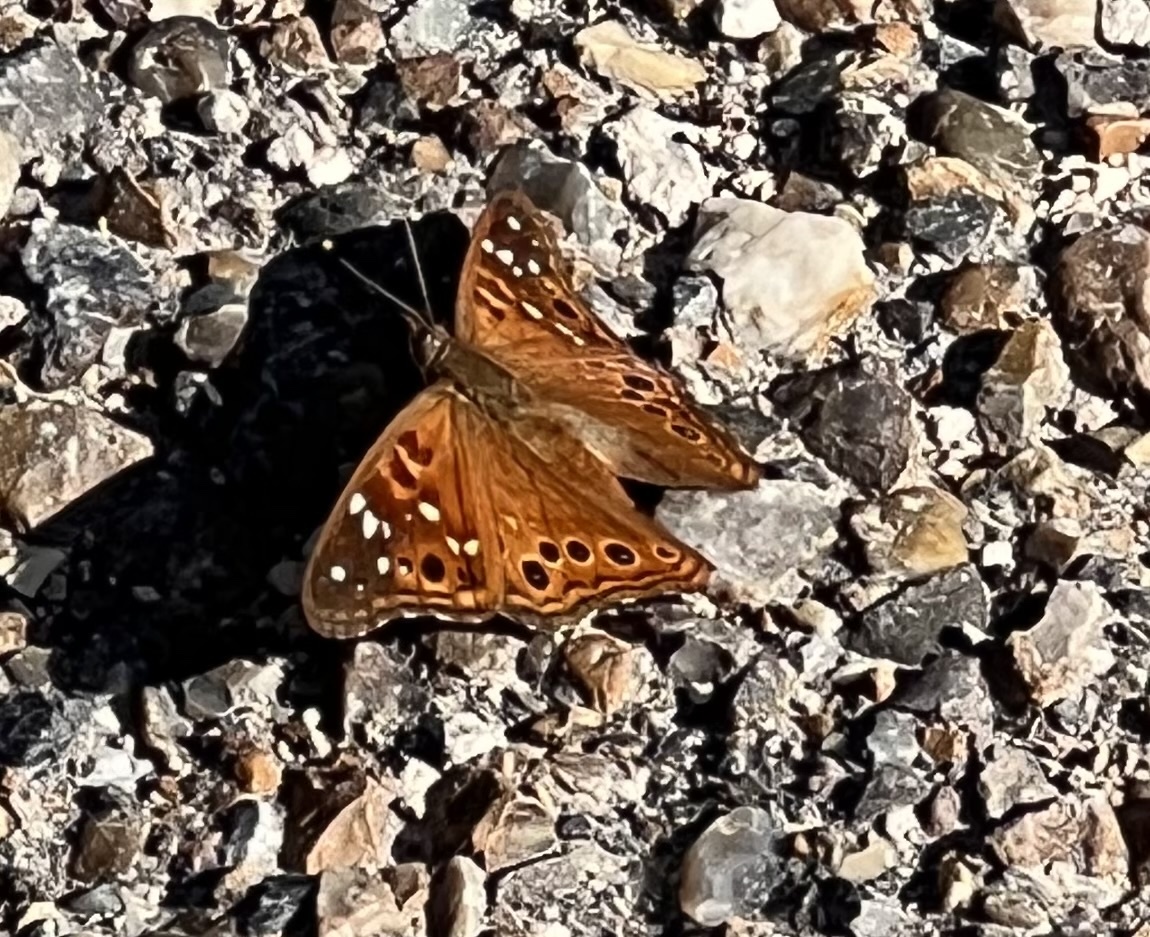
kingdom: Animalia
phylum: Arthropoda
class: Insecta
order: Lepidoptera
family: Nymphalidae
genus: Asterocampa
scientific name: Asterocampa leilia
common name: Empress leilia
